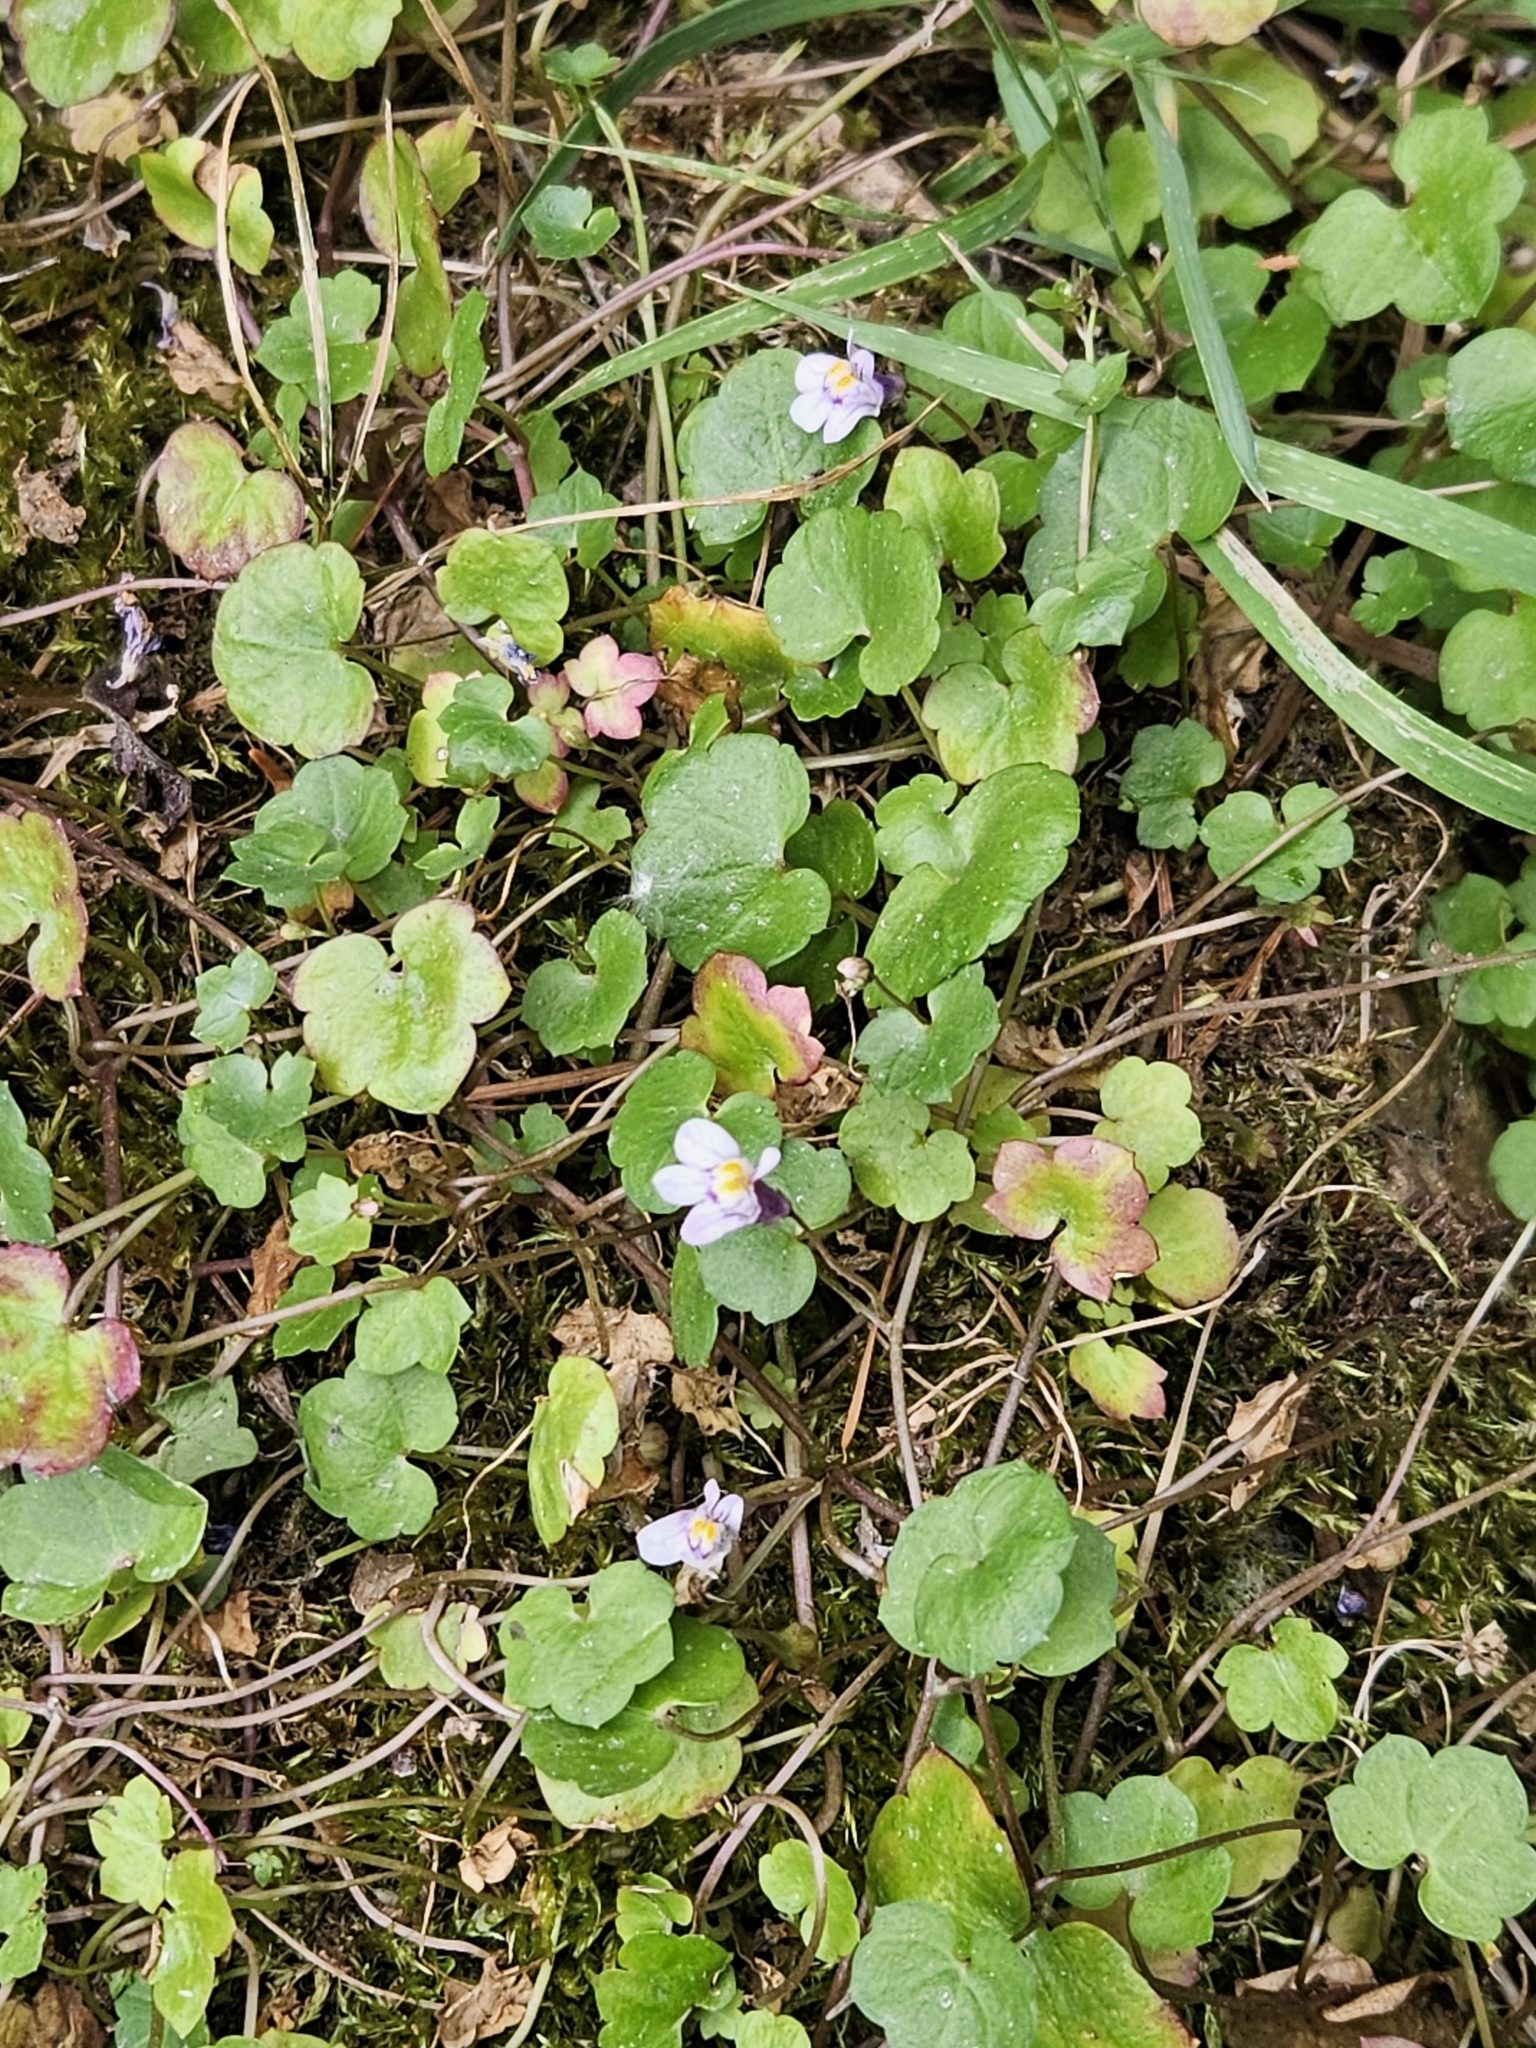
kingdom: Plantae
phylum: Tracheophyta
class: Magnoliopsida
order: Lamiales
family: Plantaginaceae
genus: Cymbalaria
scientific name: Cymbalaria muralis
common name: Ivy-leaved toadflax
